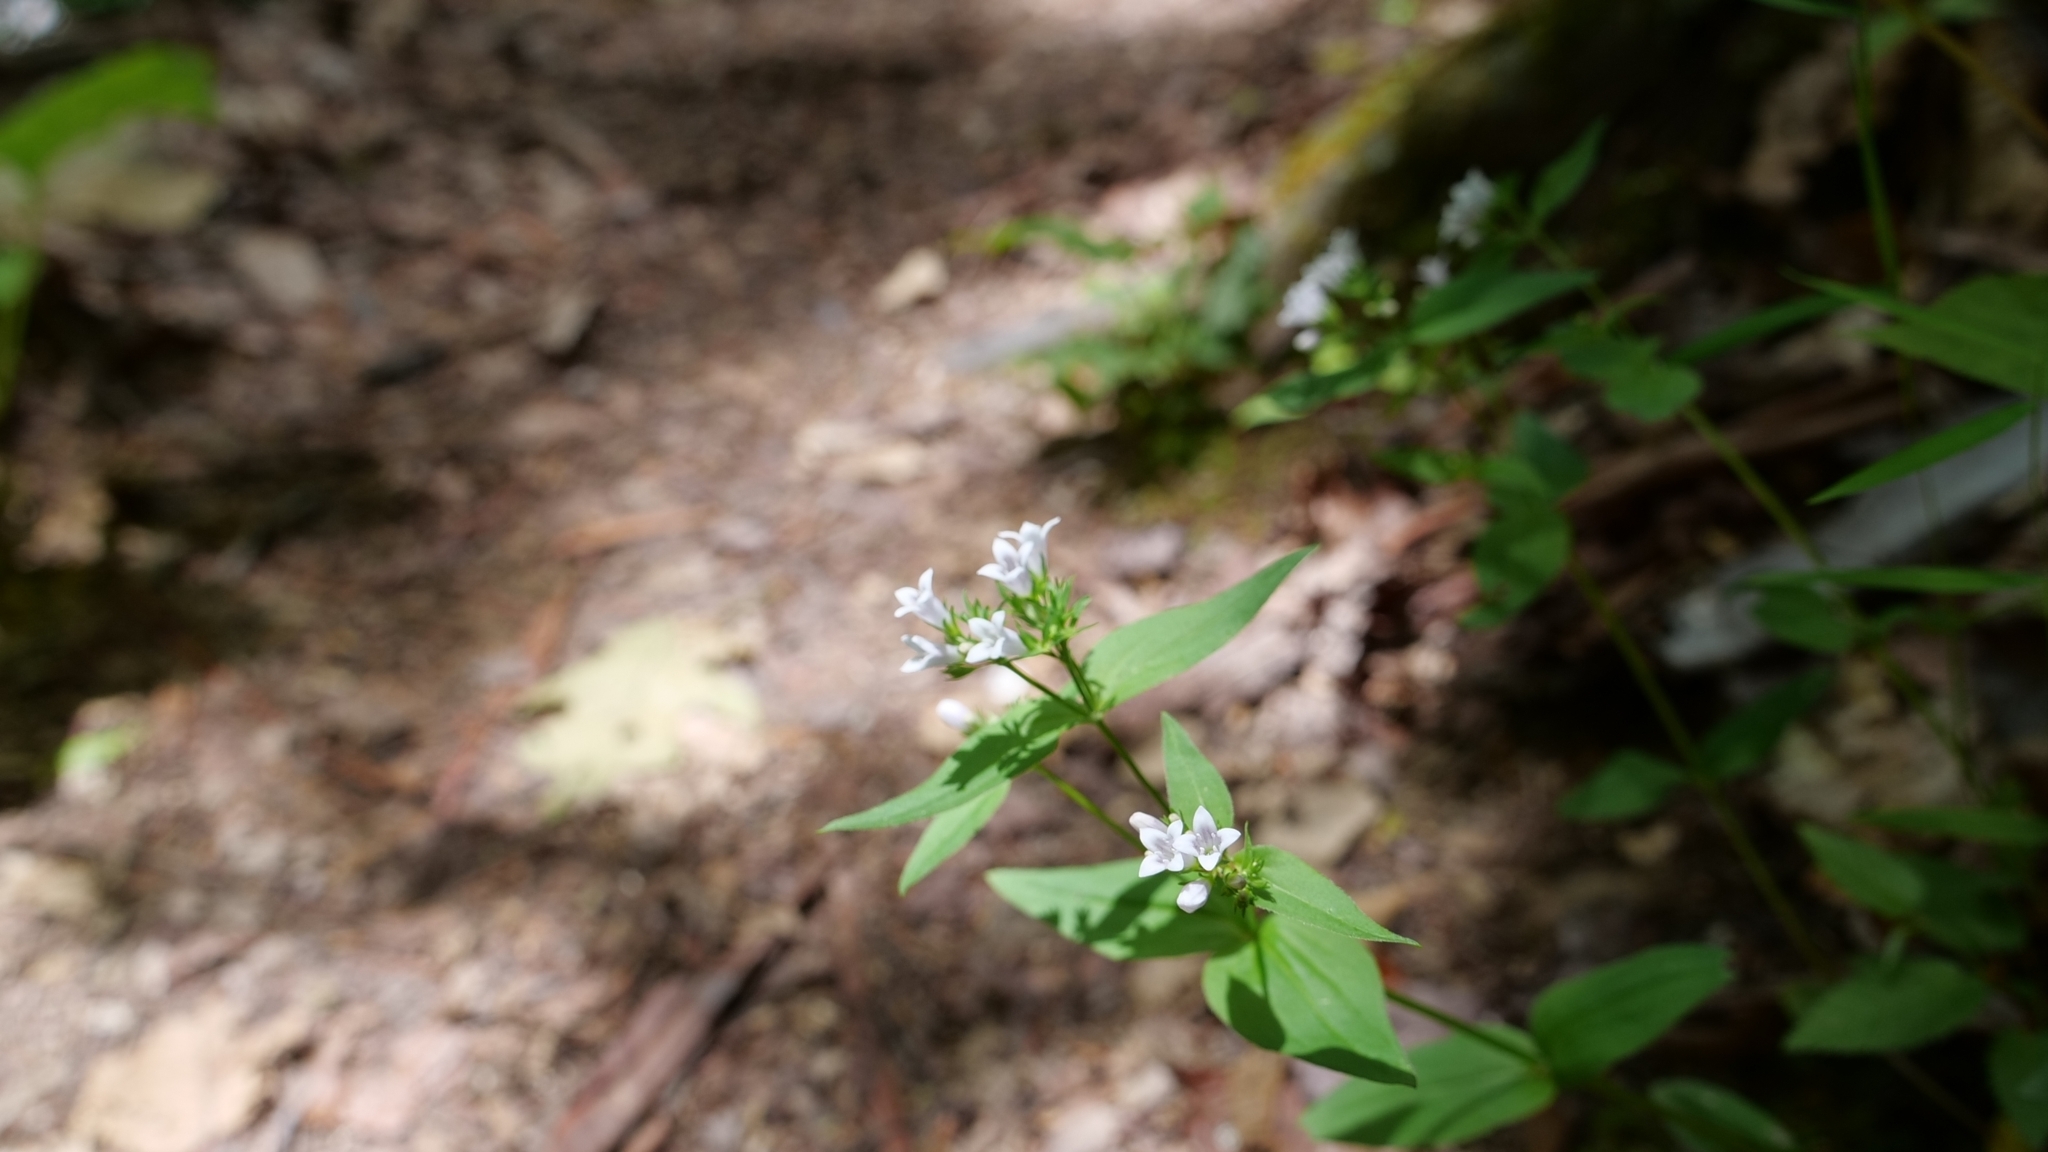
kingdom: Plantae
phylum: Tracheophyta
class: Magnoliopsida
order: Gentianales
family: Rubiaceae
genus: Houstonia
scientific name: Houstonia purpurea
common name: Summer bluet
